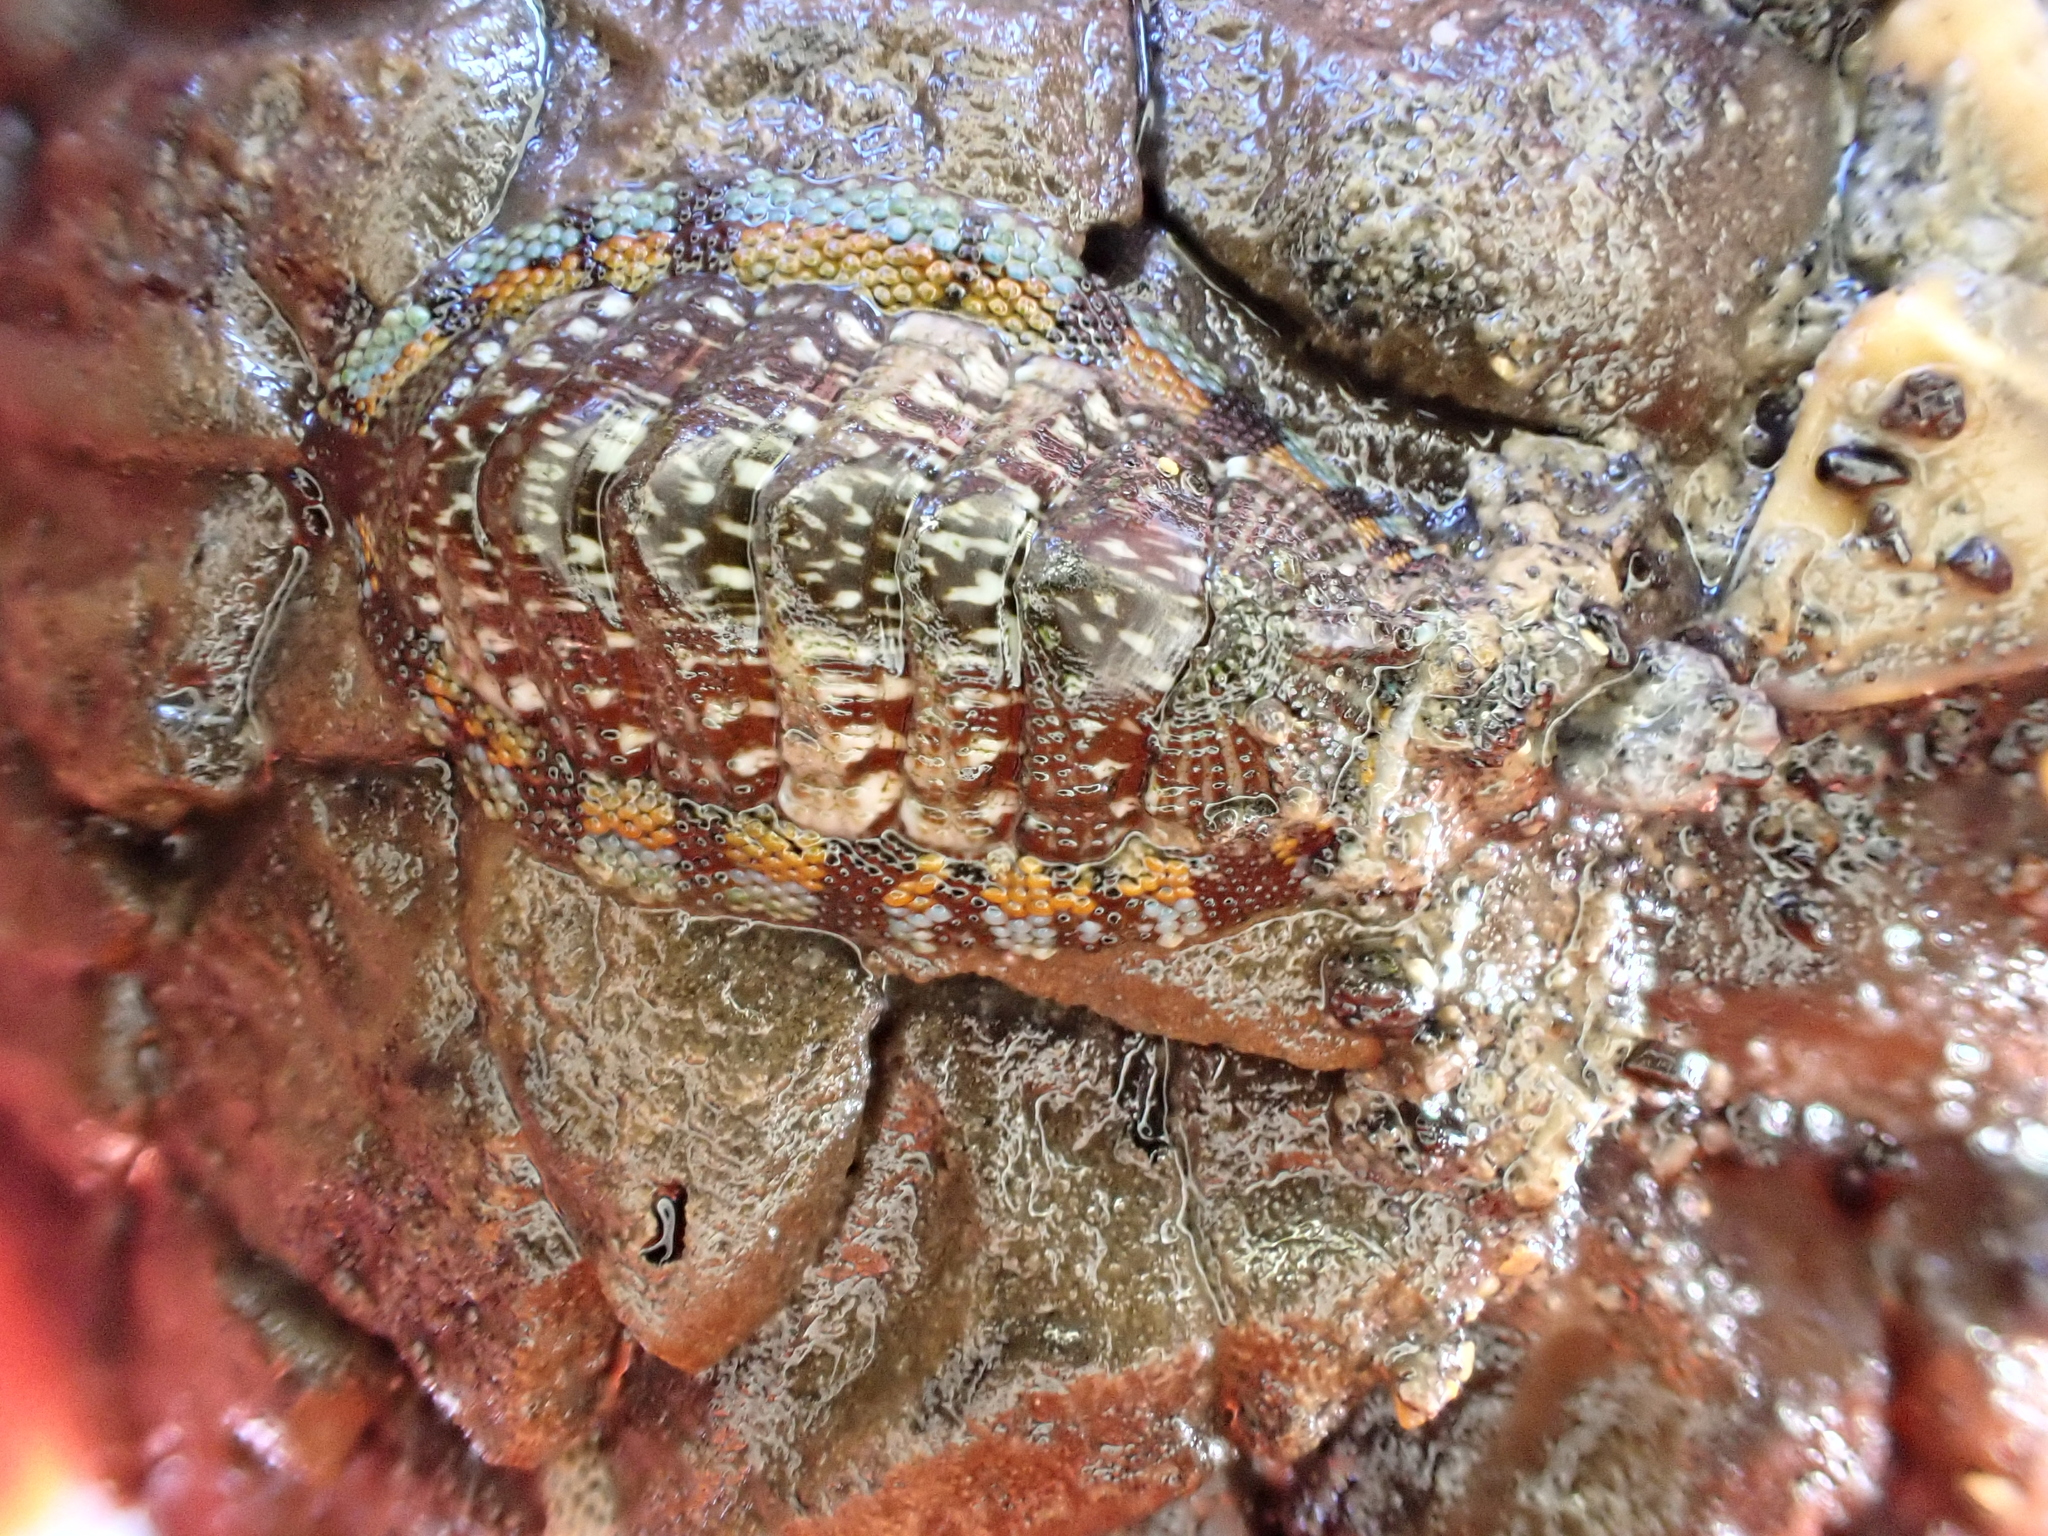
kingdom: Animalia
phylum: Mollusca
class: Polyplacophora
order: Chitonida
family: Chitonidae
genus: Sypharochiton
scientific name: Sypharochiton sinclairi
